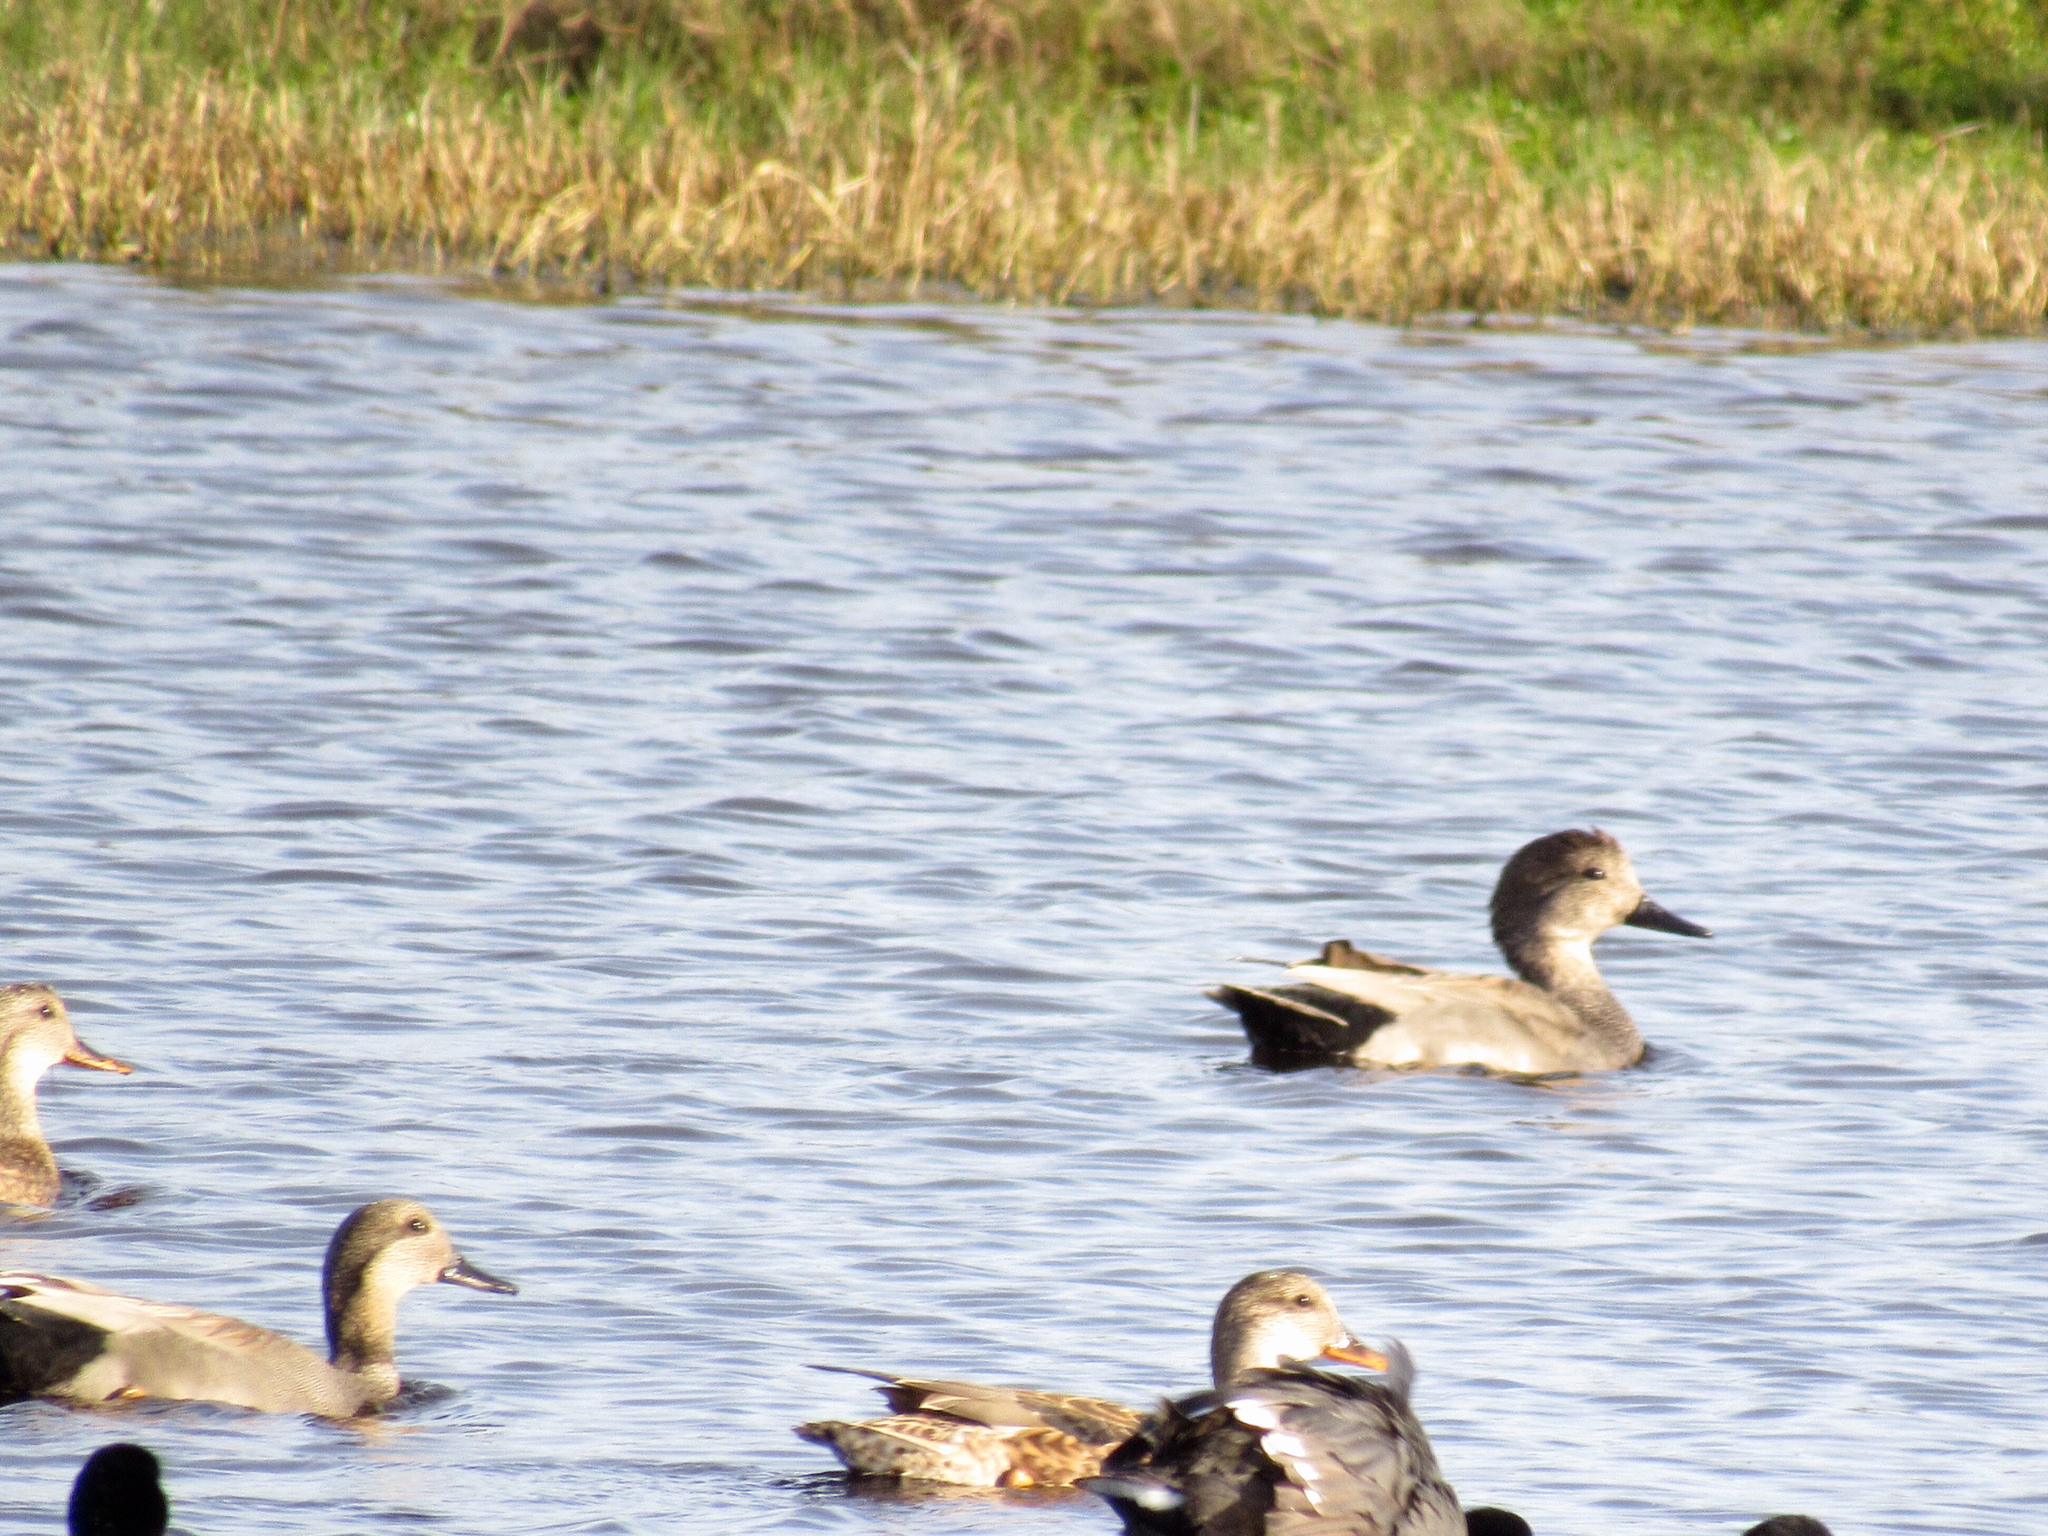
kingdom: Animalia
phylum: Chordata
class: Aves
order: Anseriformes
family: Anatidae
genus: Mareca
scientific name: Mareca strepera
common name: Gadwall
